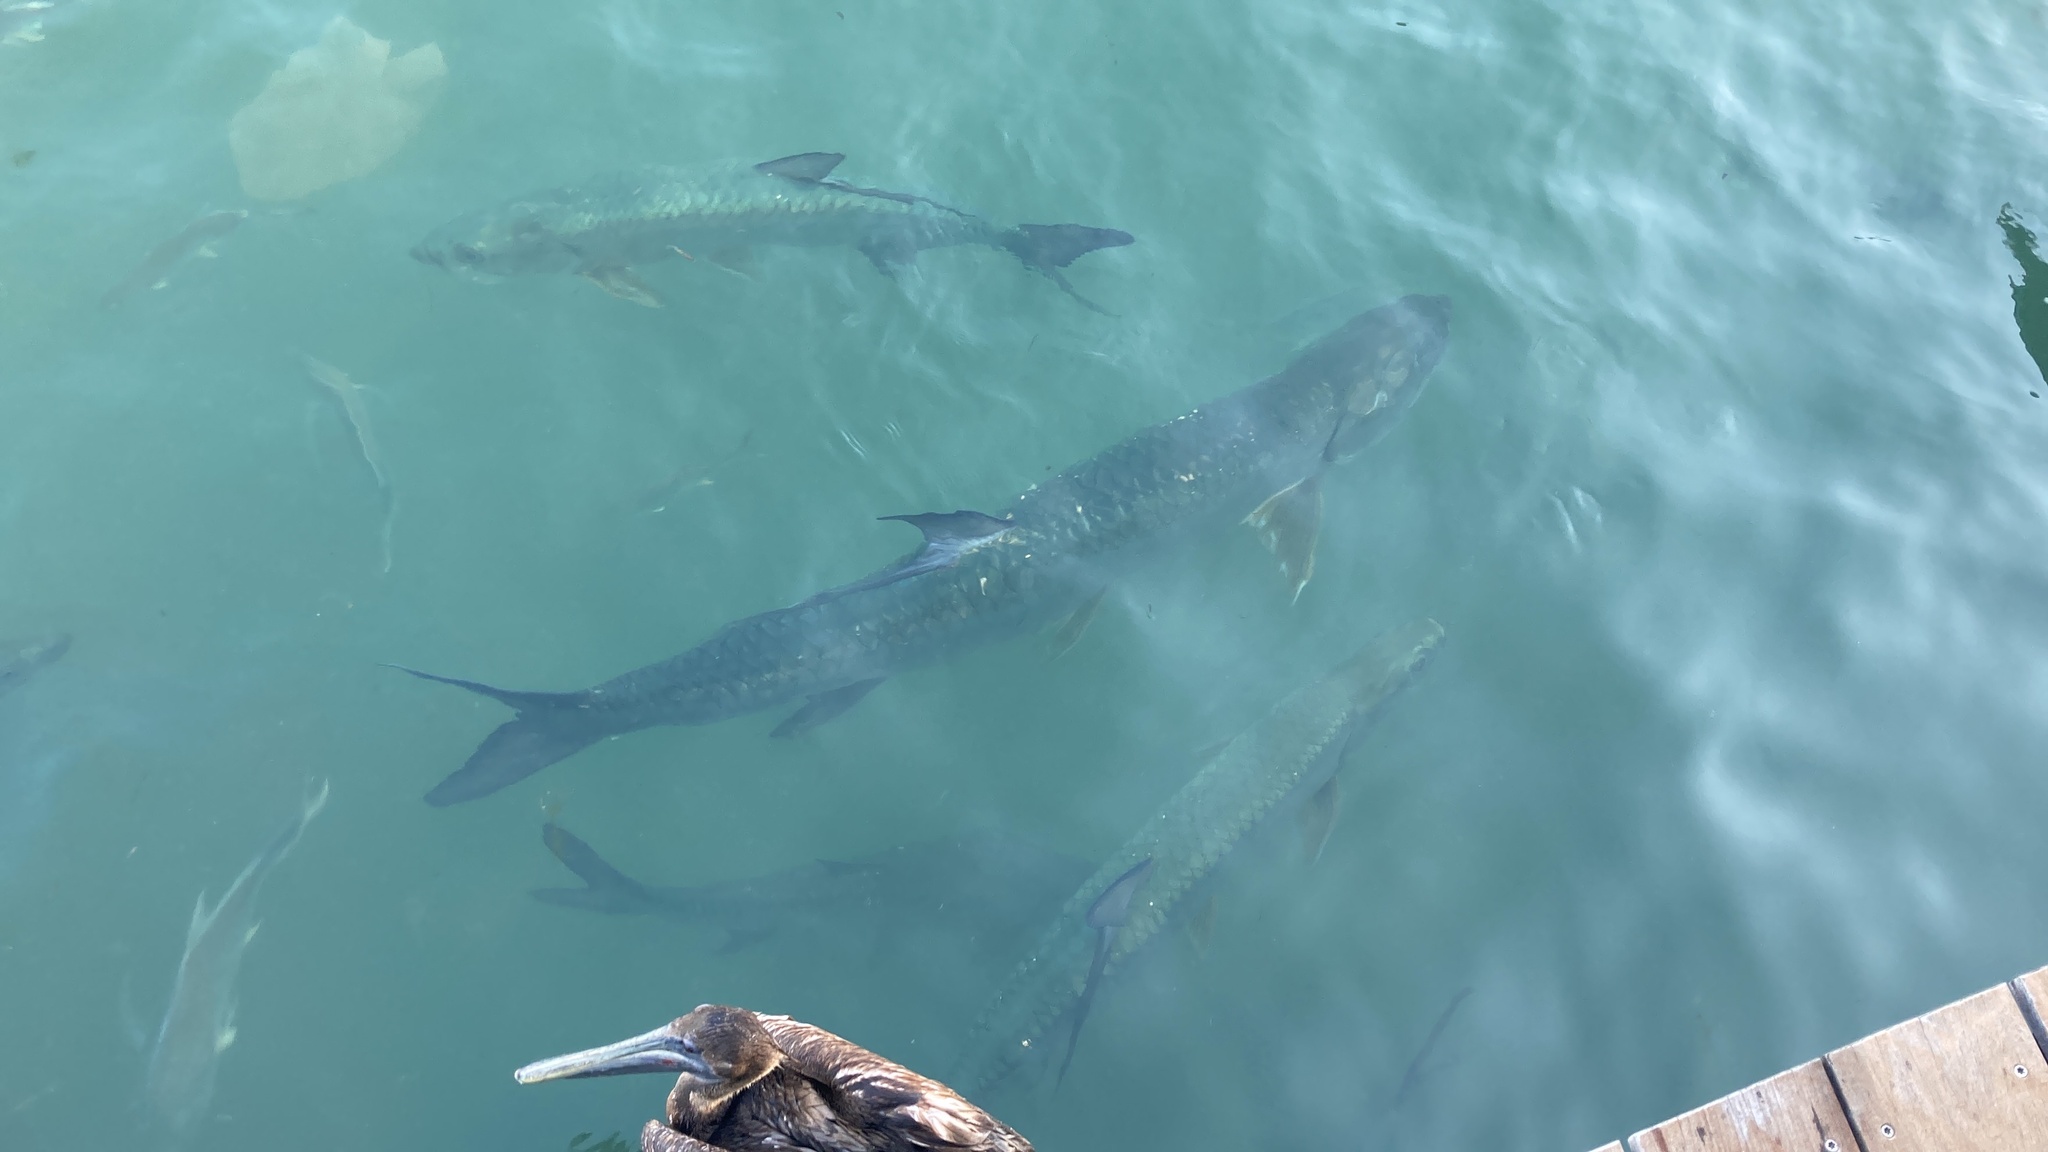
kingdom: Animalia
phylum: Chordata
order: Elopiformes
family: Megalopidae
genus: Megalops
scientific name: Megalops atlanticus
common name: Tarpon
